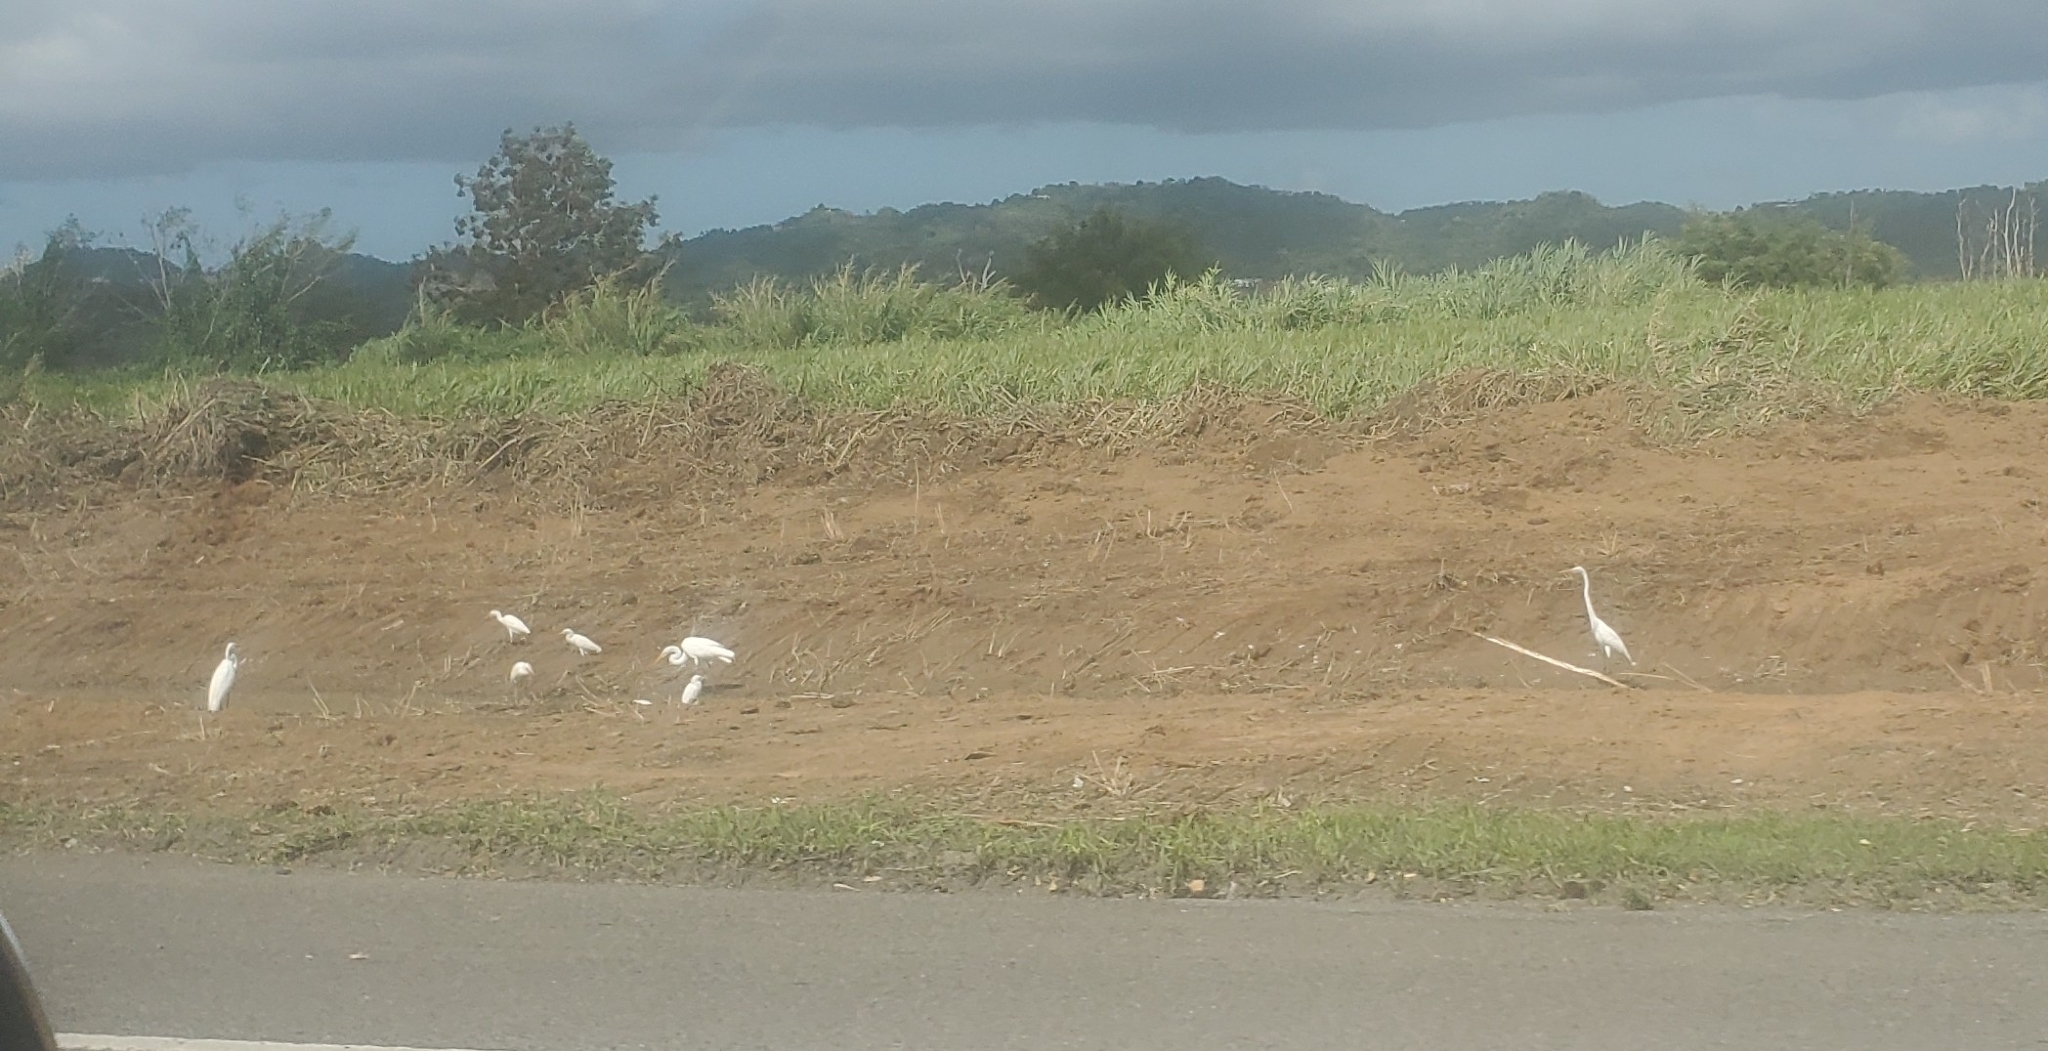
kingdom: Animalia
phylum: Chordata
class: Aves
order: Pelecaniformes
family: Ardeidae
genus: Bubulcus
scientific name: Bubulcus ibis
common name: Cattle egret
